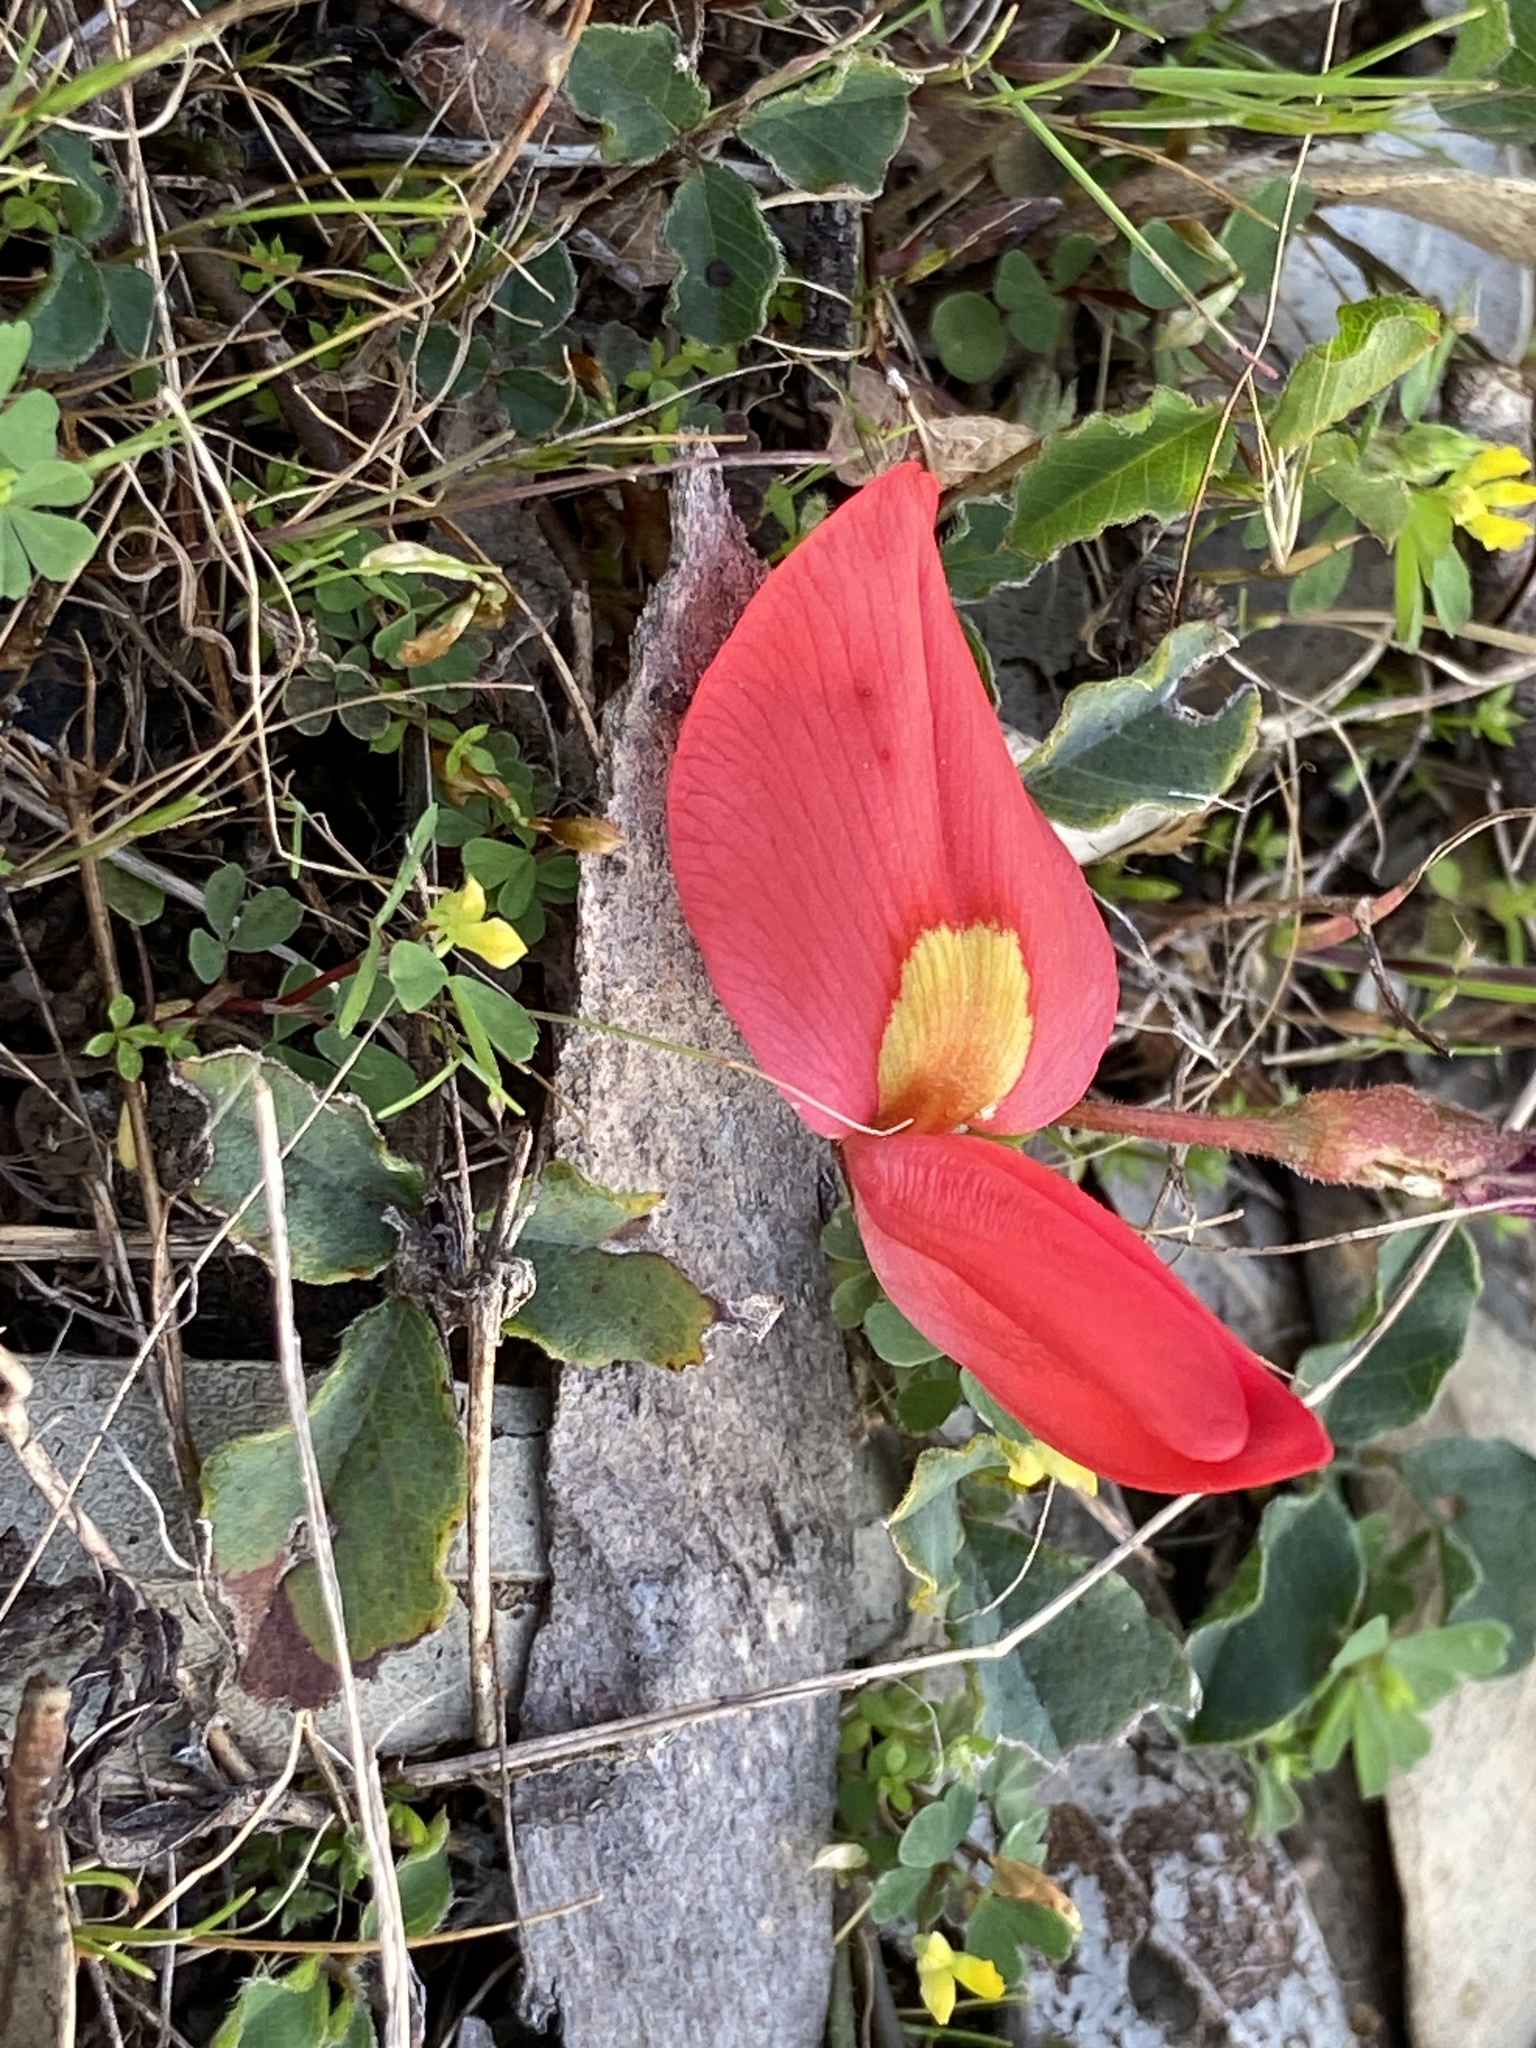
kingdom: Plantae
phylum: Tracheophyta
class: Magnoliopsida
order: Fabales
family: Fabaceae
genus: Kennedia
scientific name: Kennedia prostrata
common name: Running-postman
